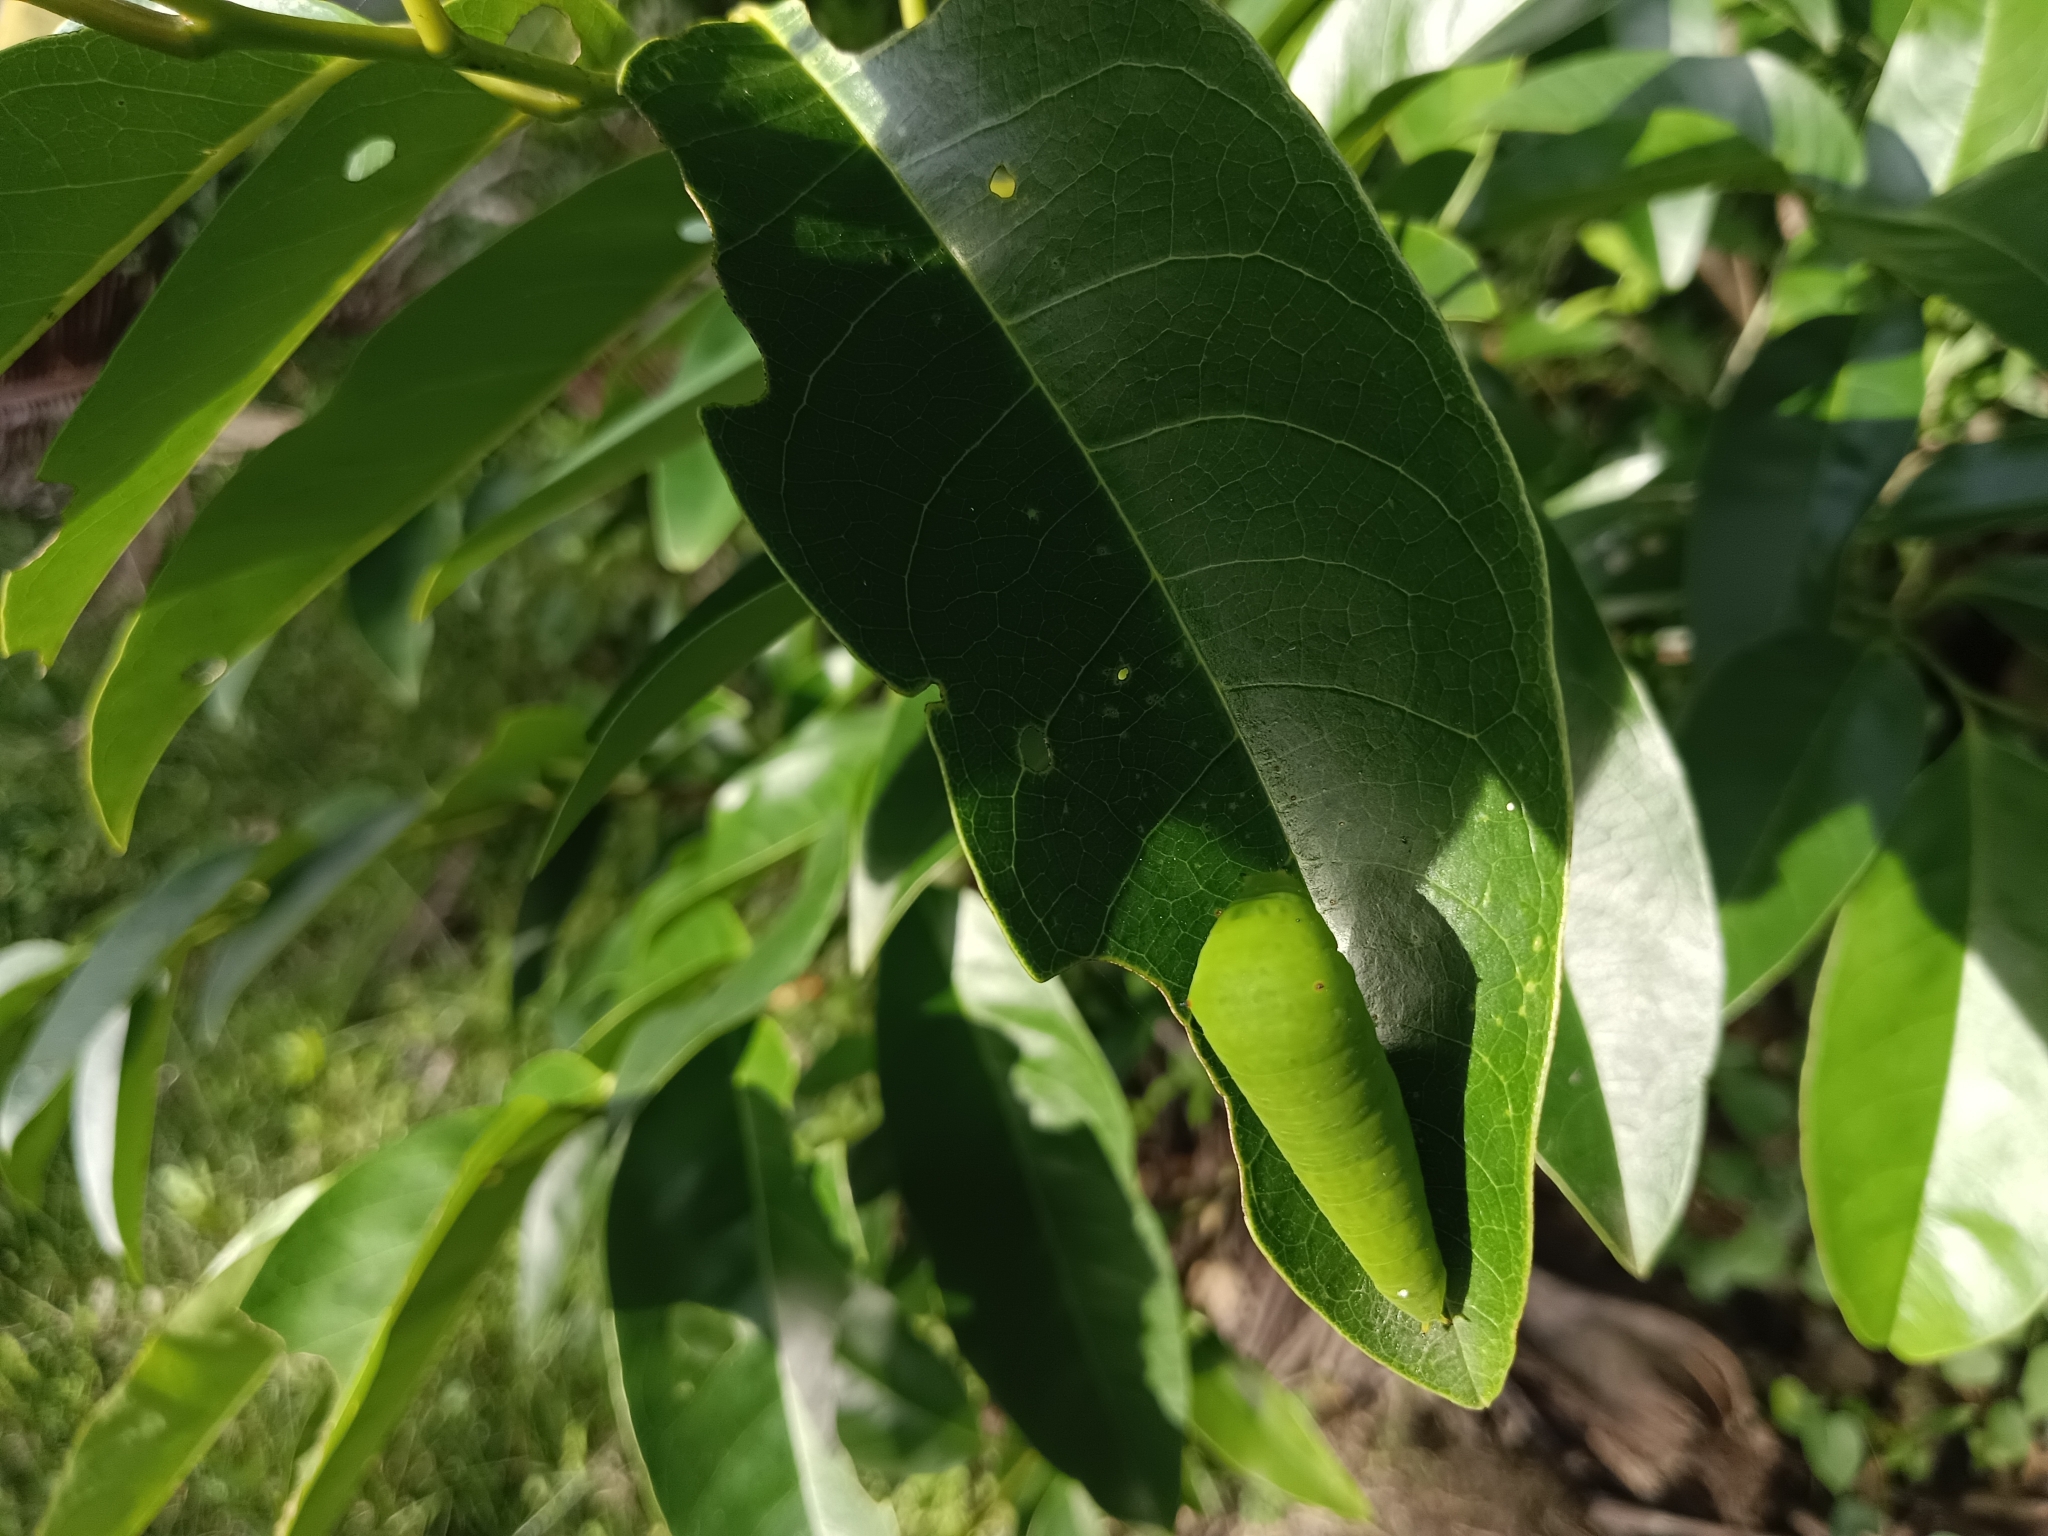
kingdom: Animalia
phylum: Arthropoda
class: Insecta
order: Lepidoptera
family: Papilionidae
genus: Graphium
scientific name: Graphium agamemnon
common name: Tailed jay
